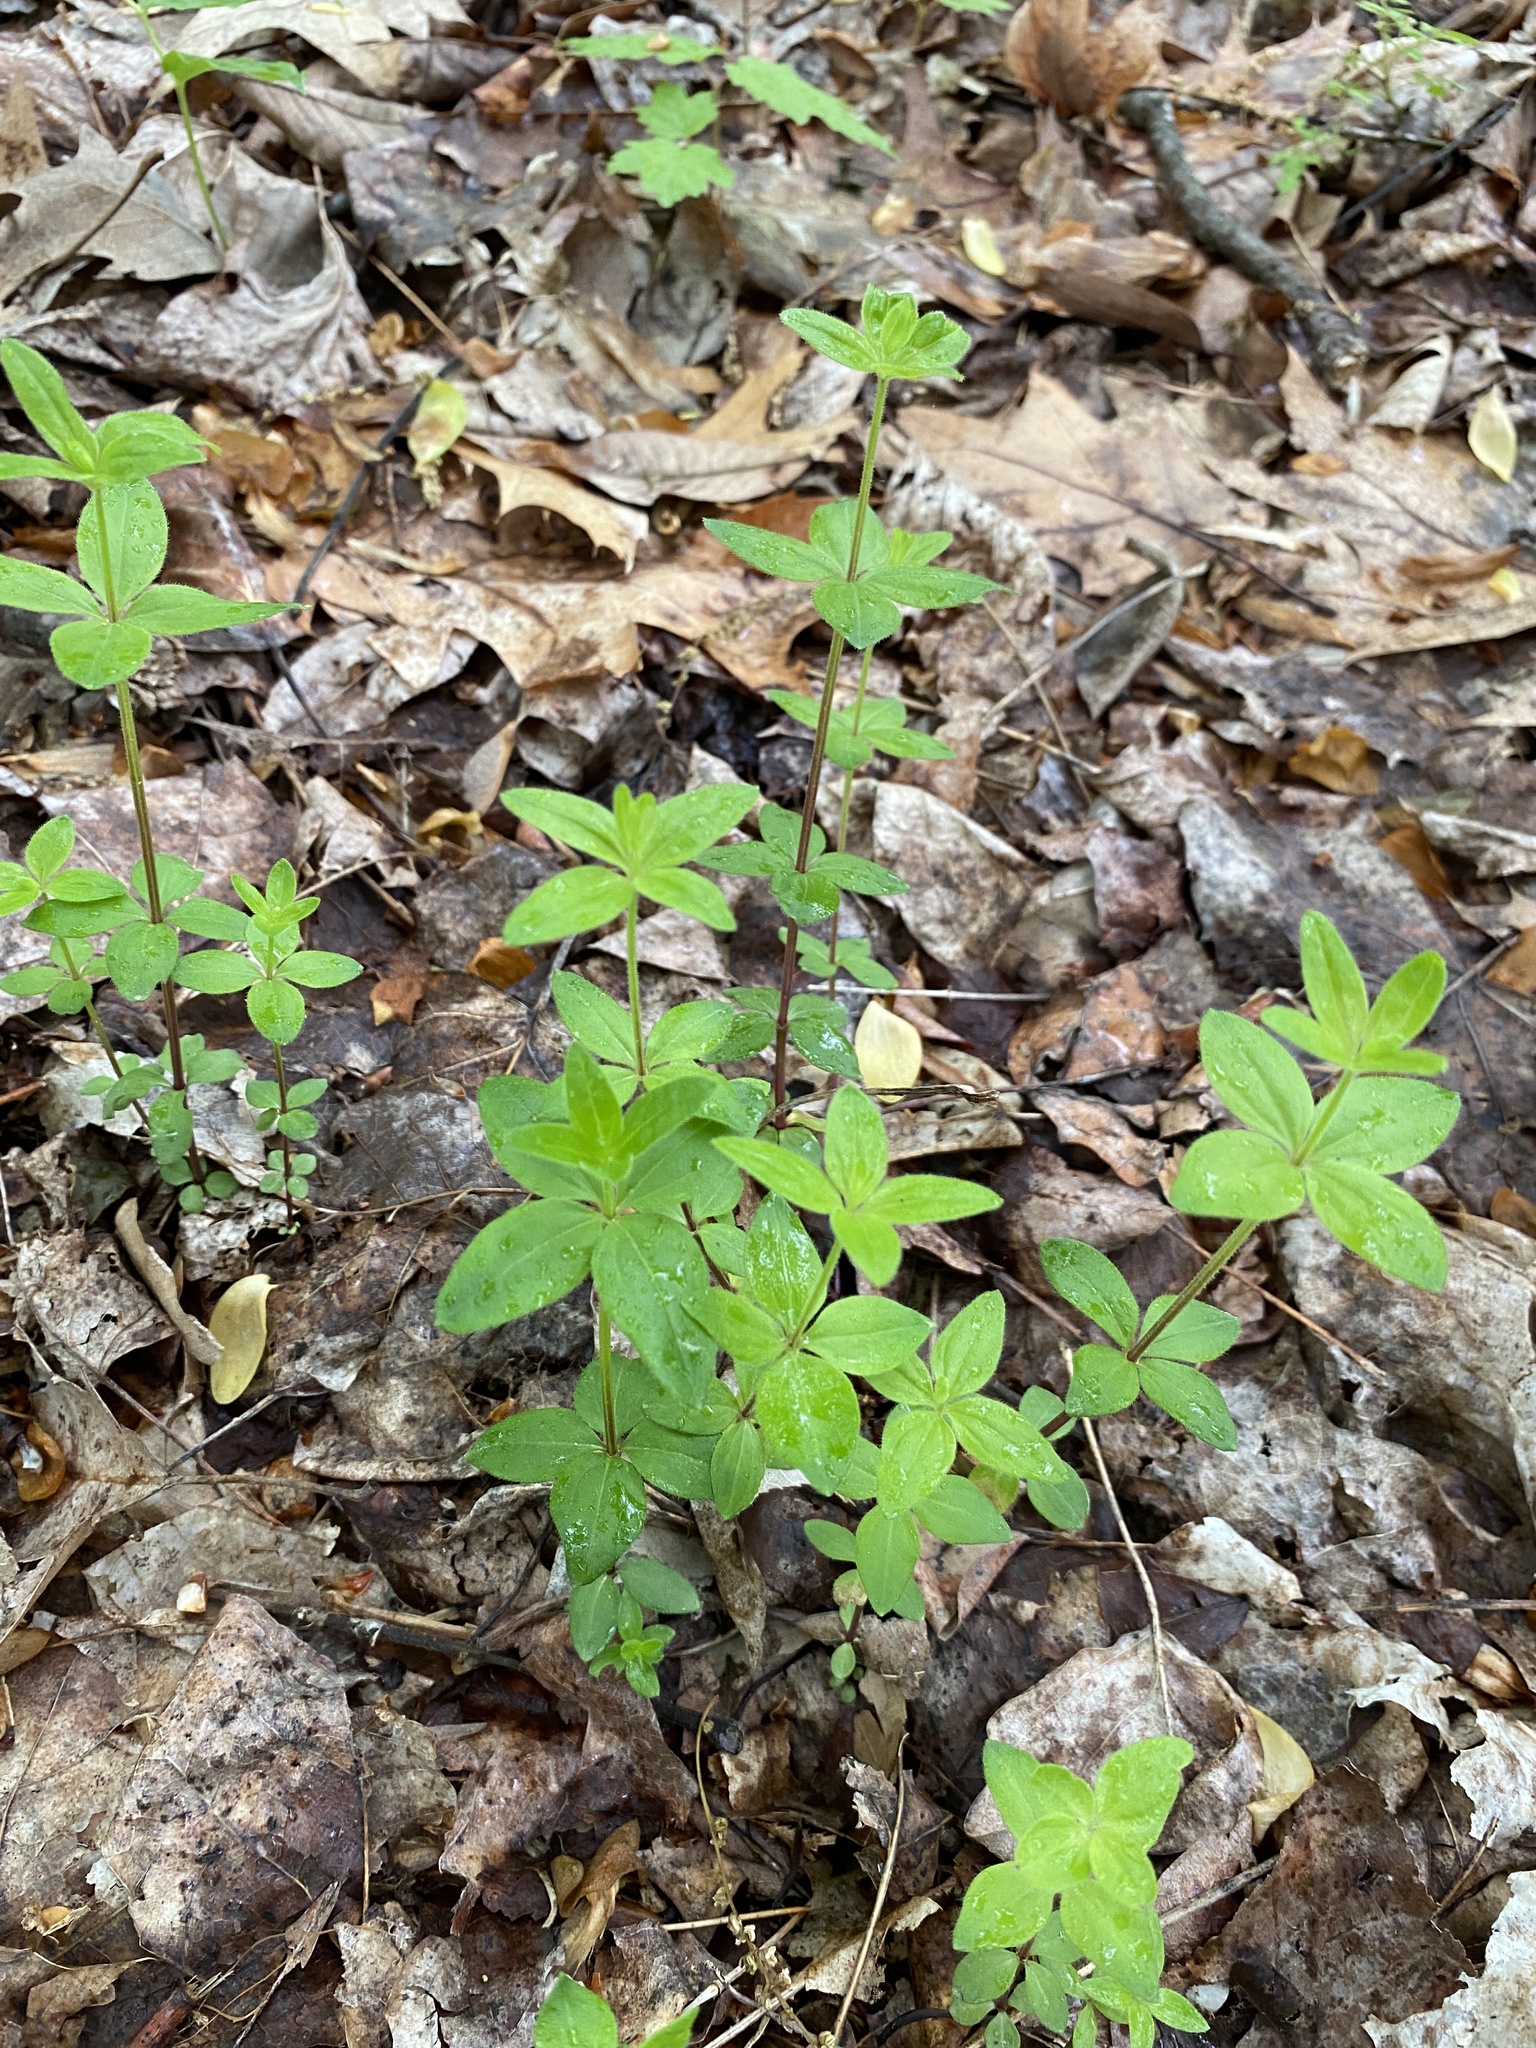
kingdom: Plantae
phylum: Tracheophyta
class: Magnoliopsida
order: Gentianales
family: Rubiaceae
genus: Galium
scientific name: Galium circaezans
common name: Forest bedstraw
